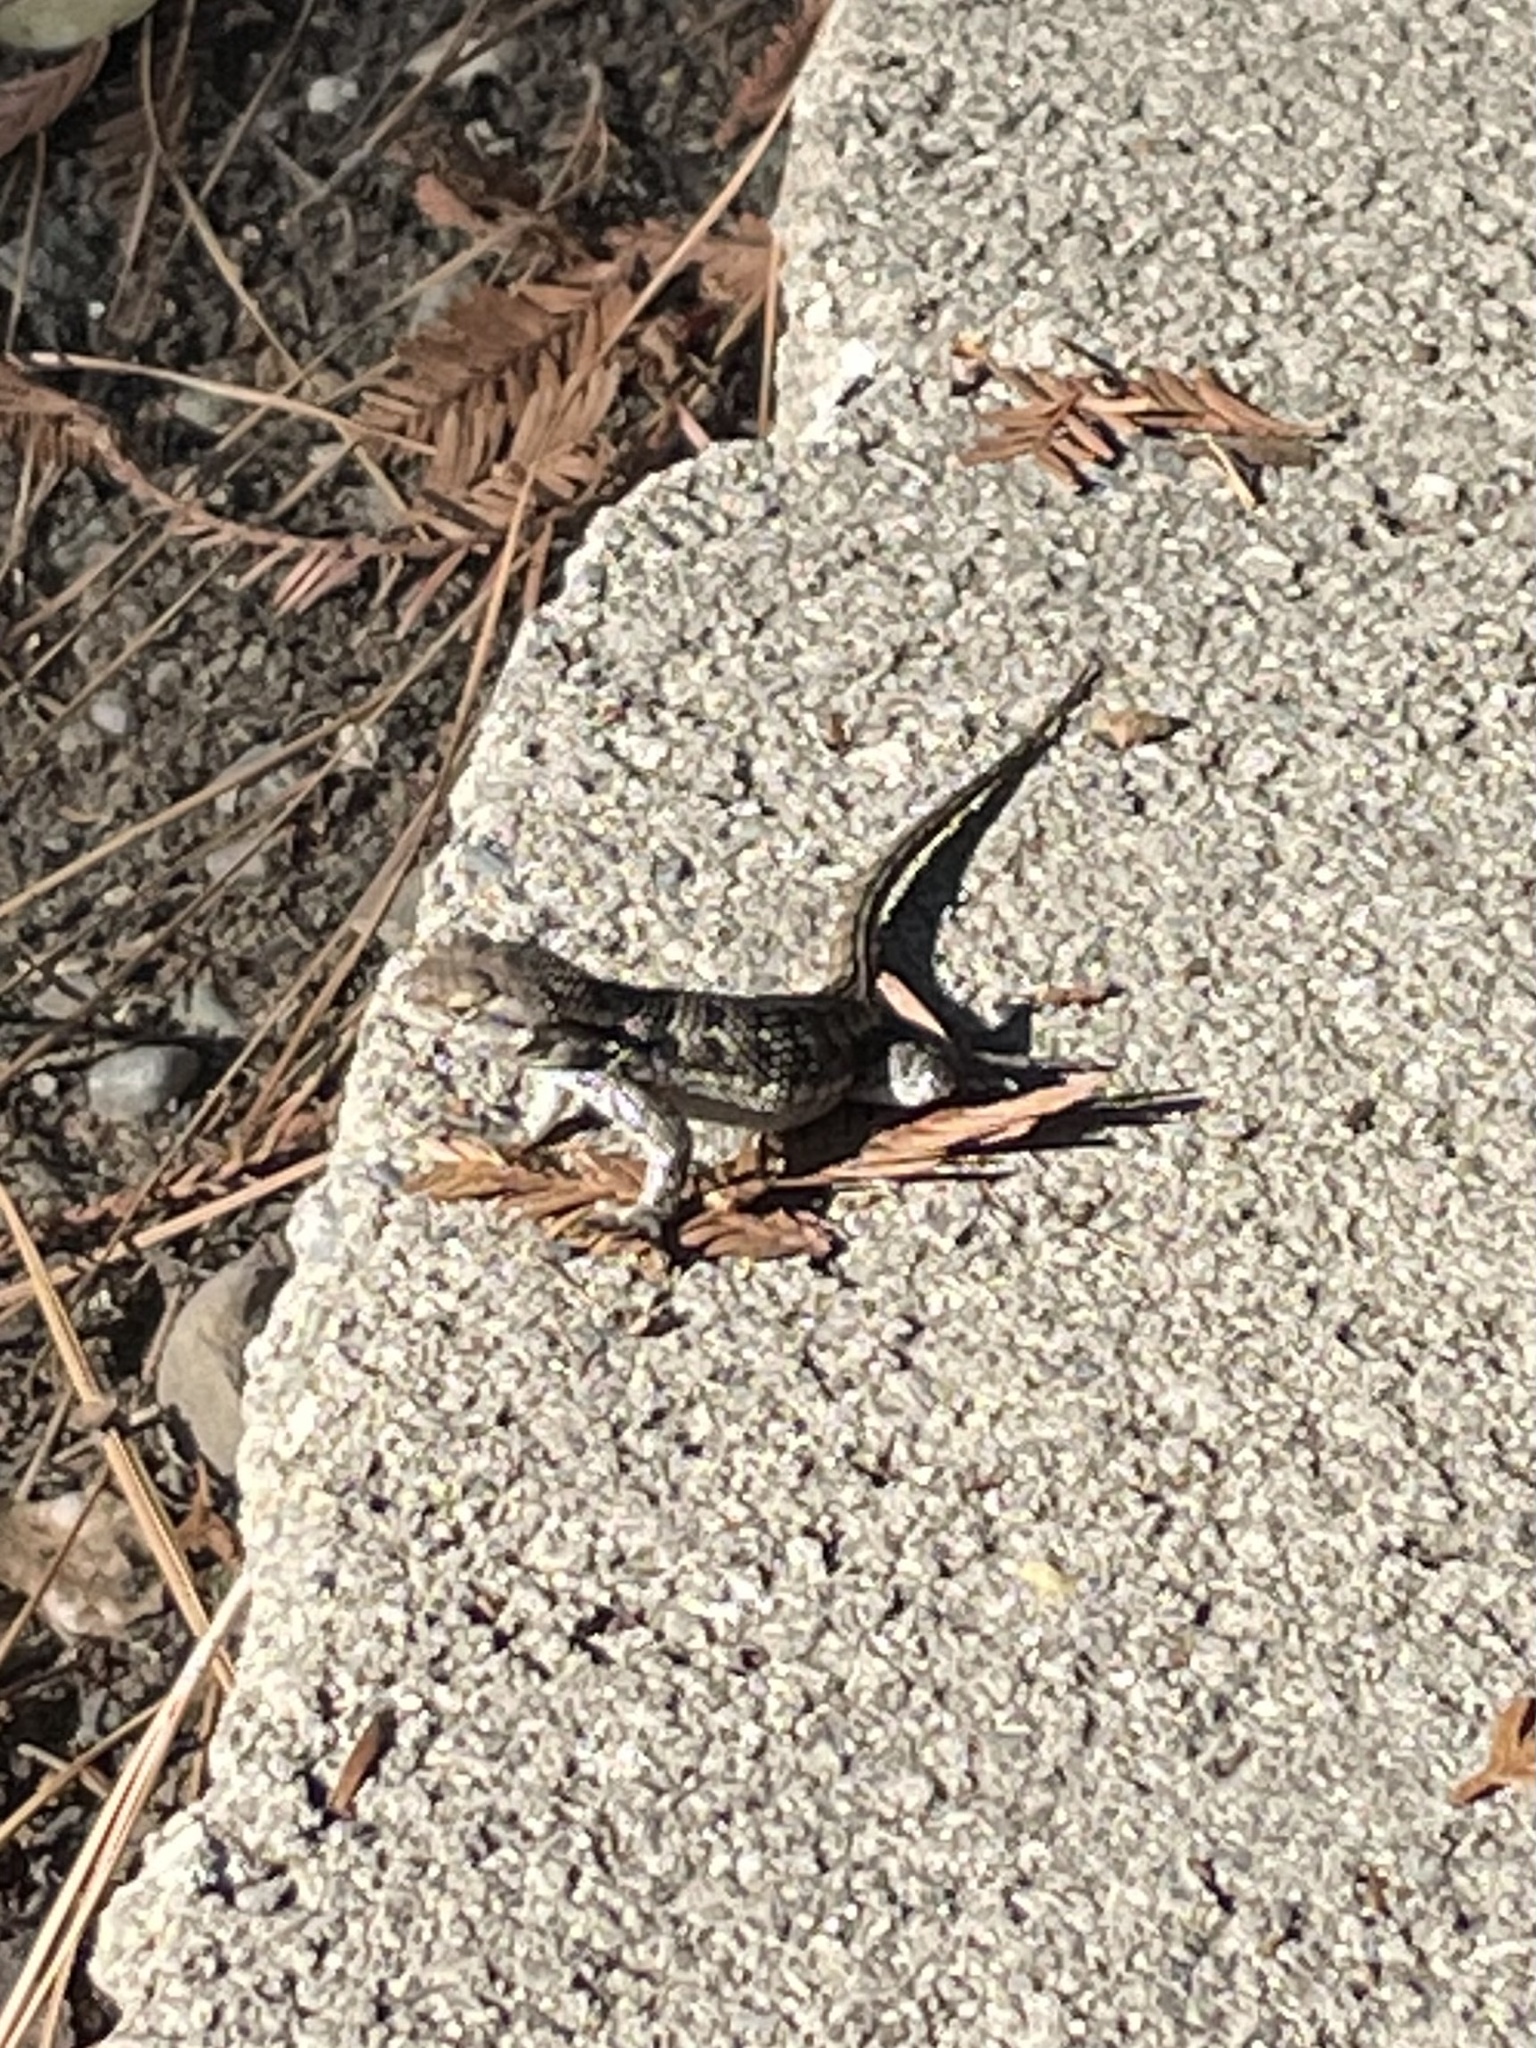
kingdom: Animalia
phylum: Chordata
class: Squamata
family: Phrynosomatidae
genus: Sceloporus
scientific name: Sceloporus occidentalis
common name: Western fence lizard
